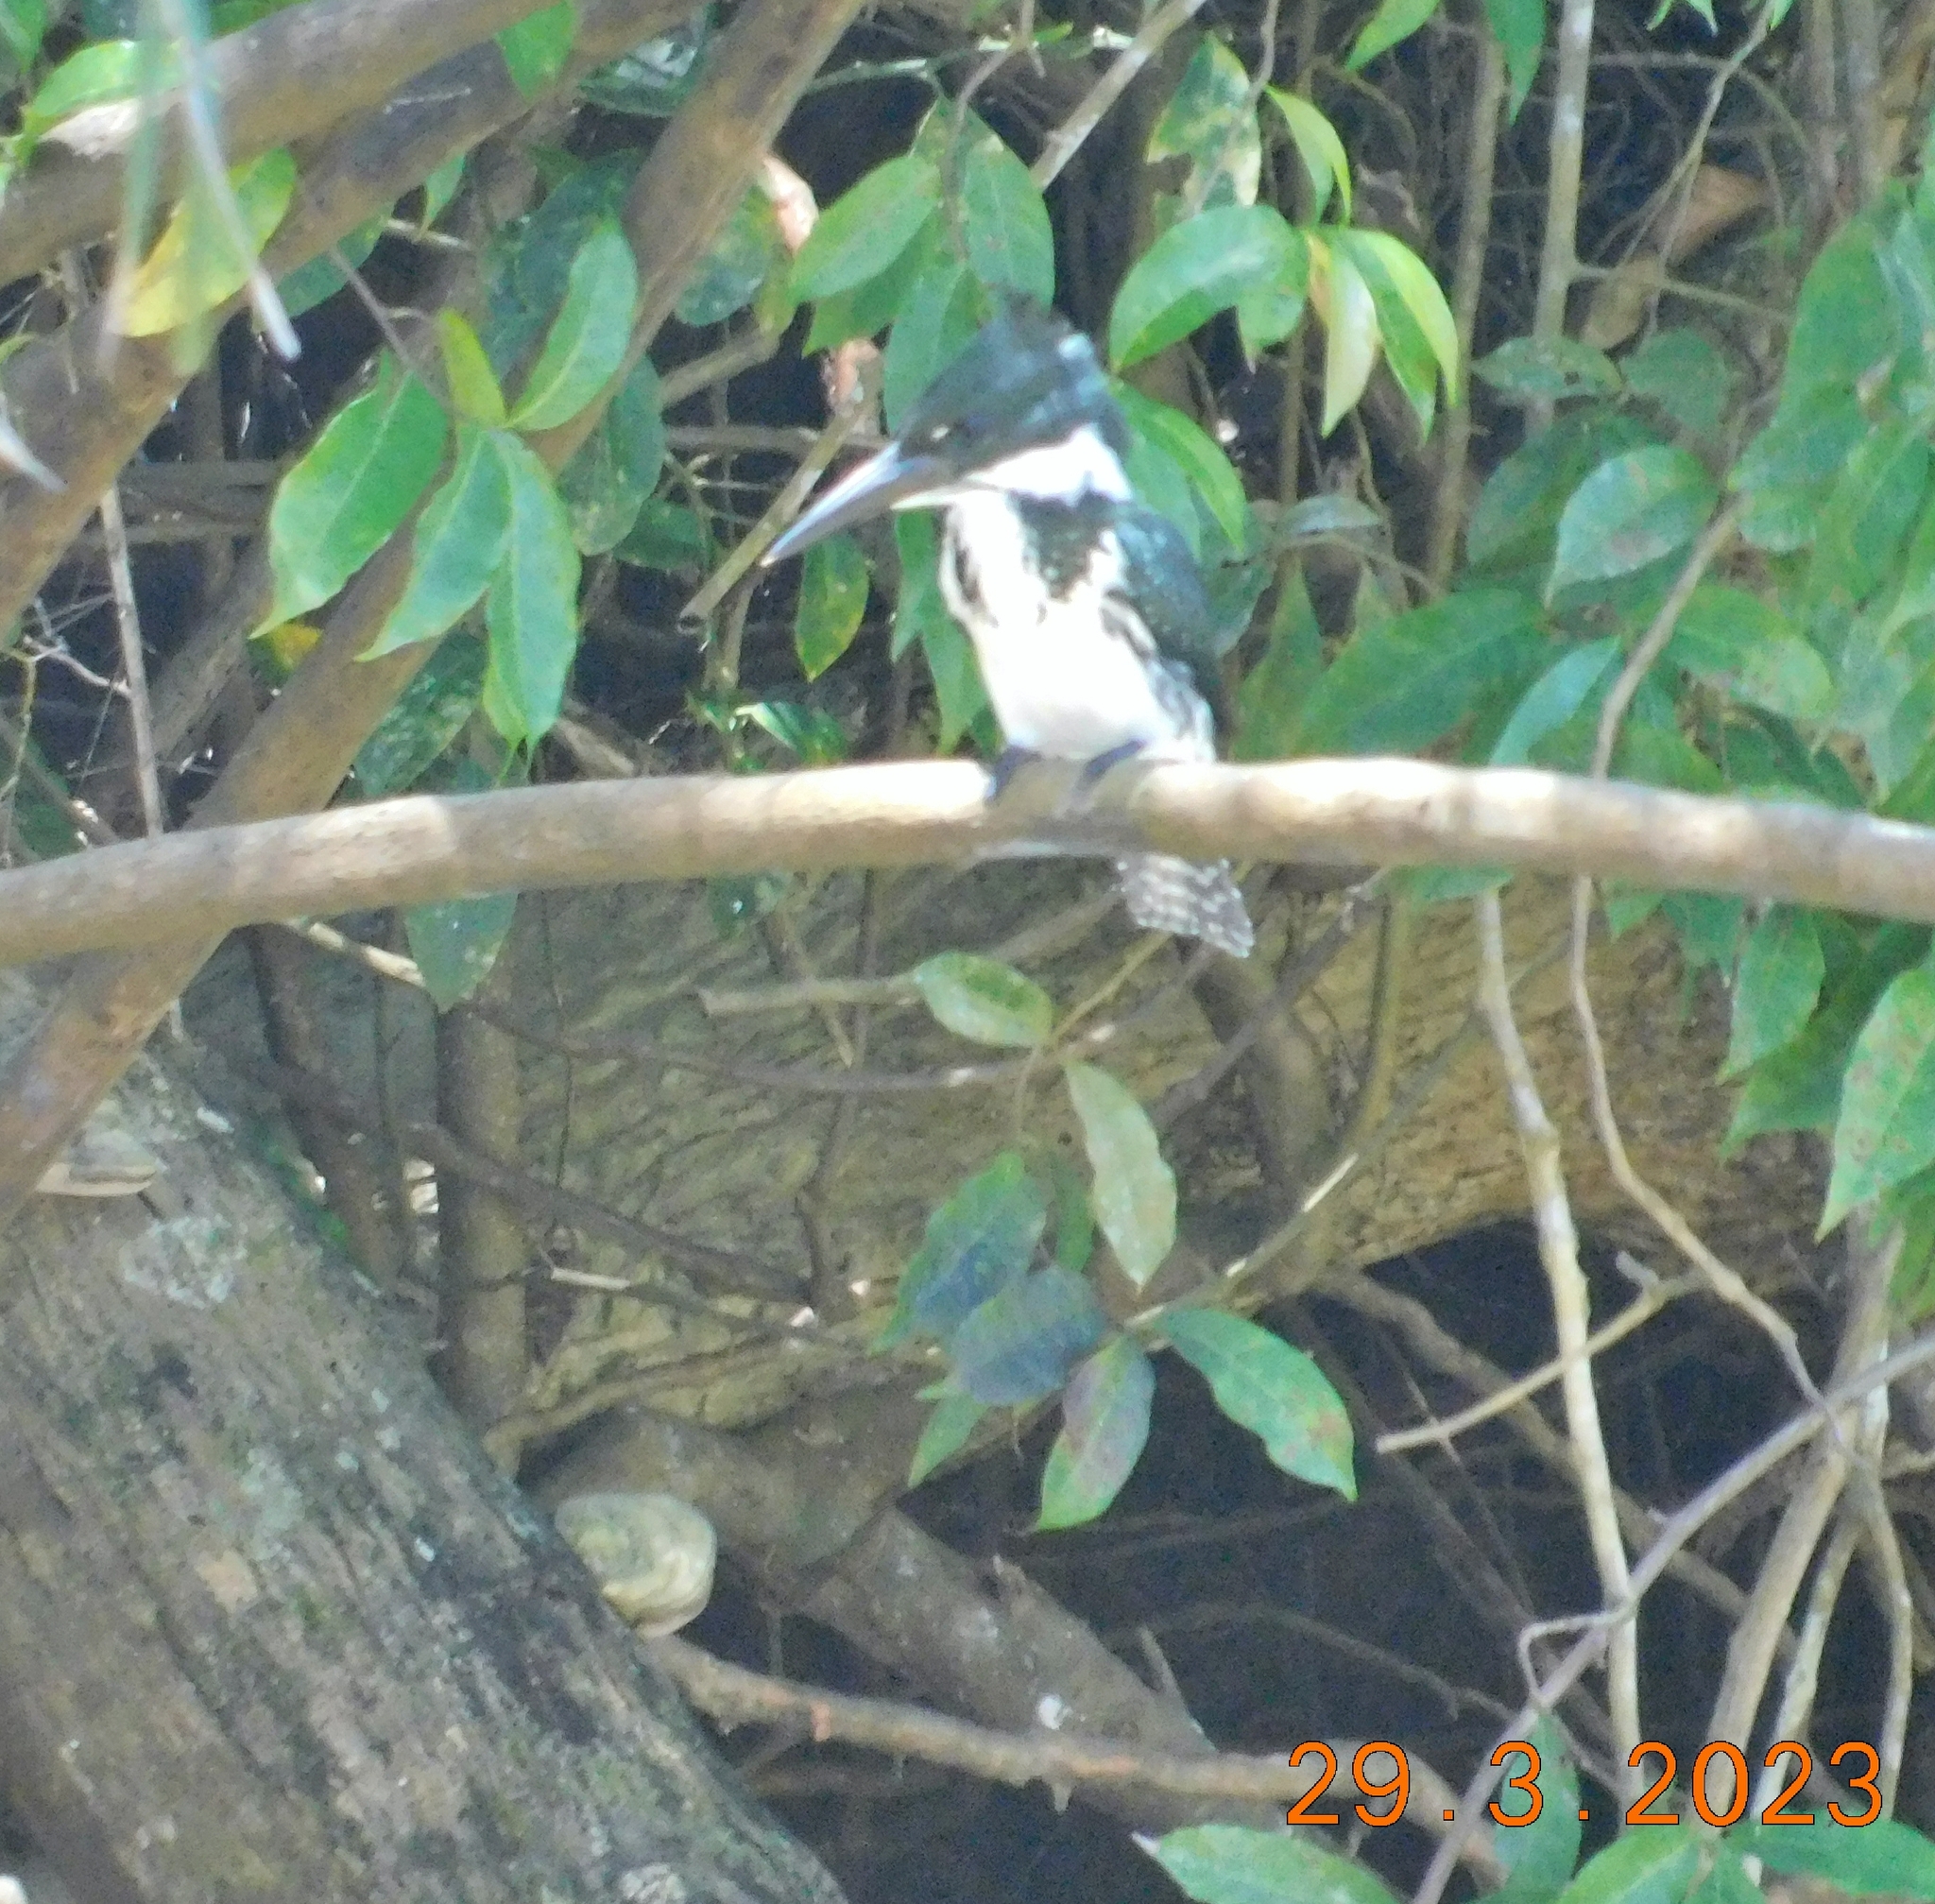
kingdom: Animalia
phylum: Chordata
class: Aves
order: Coraciiformes
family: Alcedinidae
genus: Chloroceryle
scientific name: Chloroceryle amazona
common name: Amazon kingfisher
